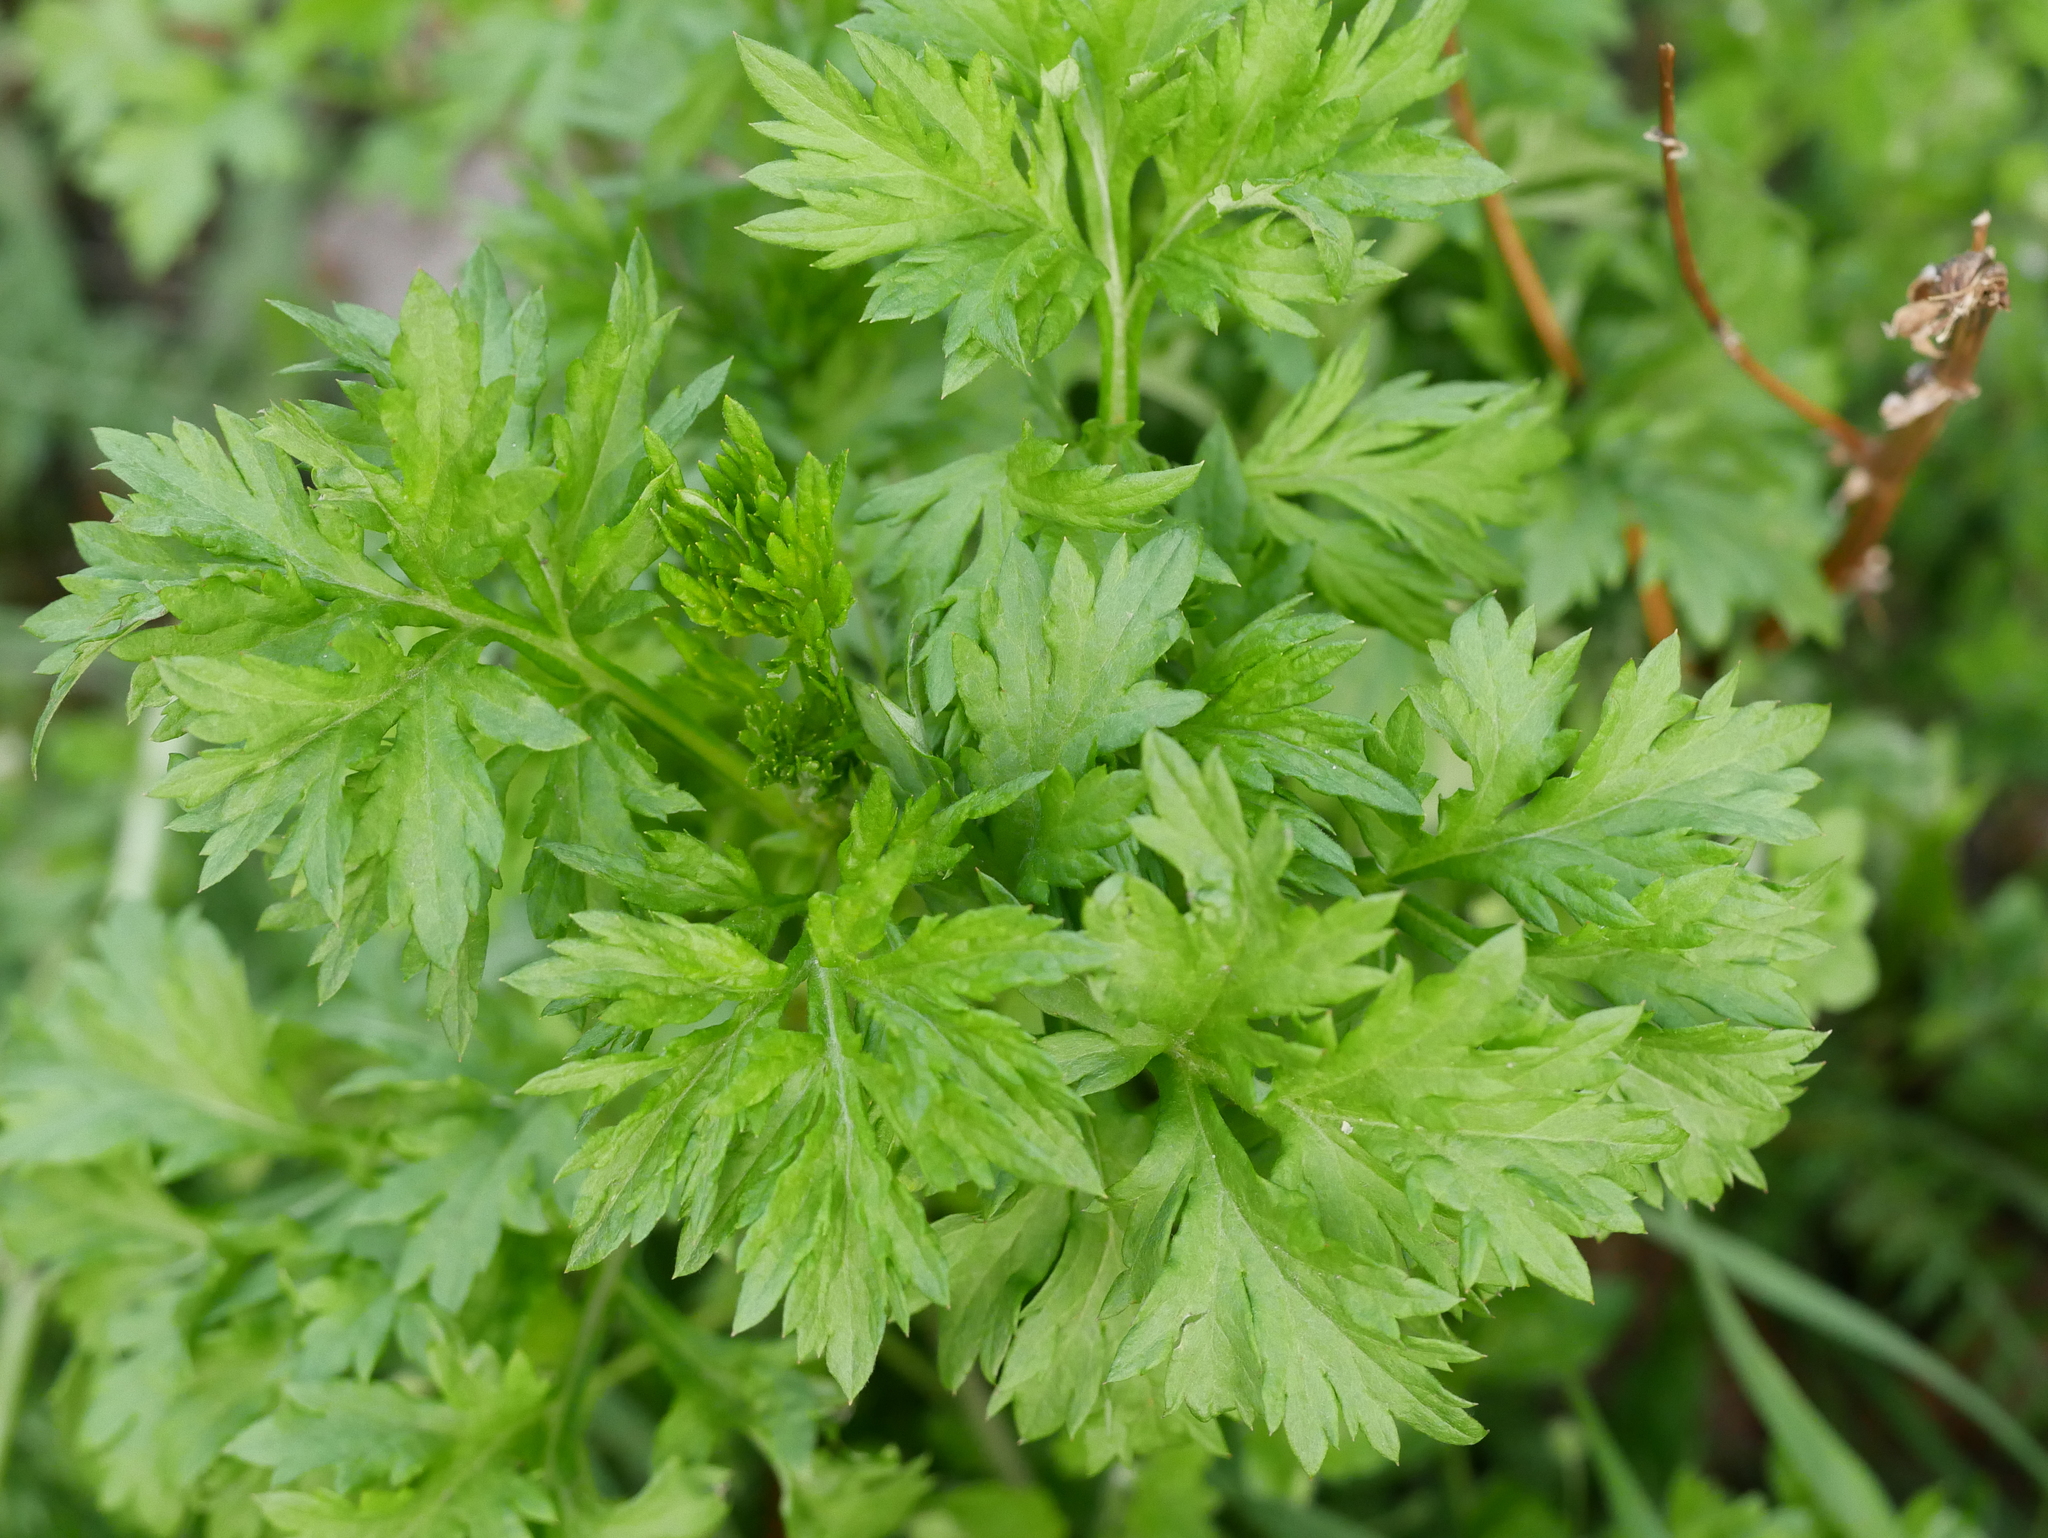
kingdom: Plantae
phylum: Tracheophyta
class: Magnoliopsida
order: Asterales
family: Asteraceae
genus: Artemisia
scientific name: Artemisia vulgaris
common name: Mugwort
